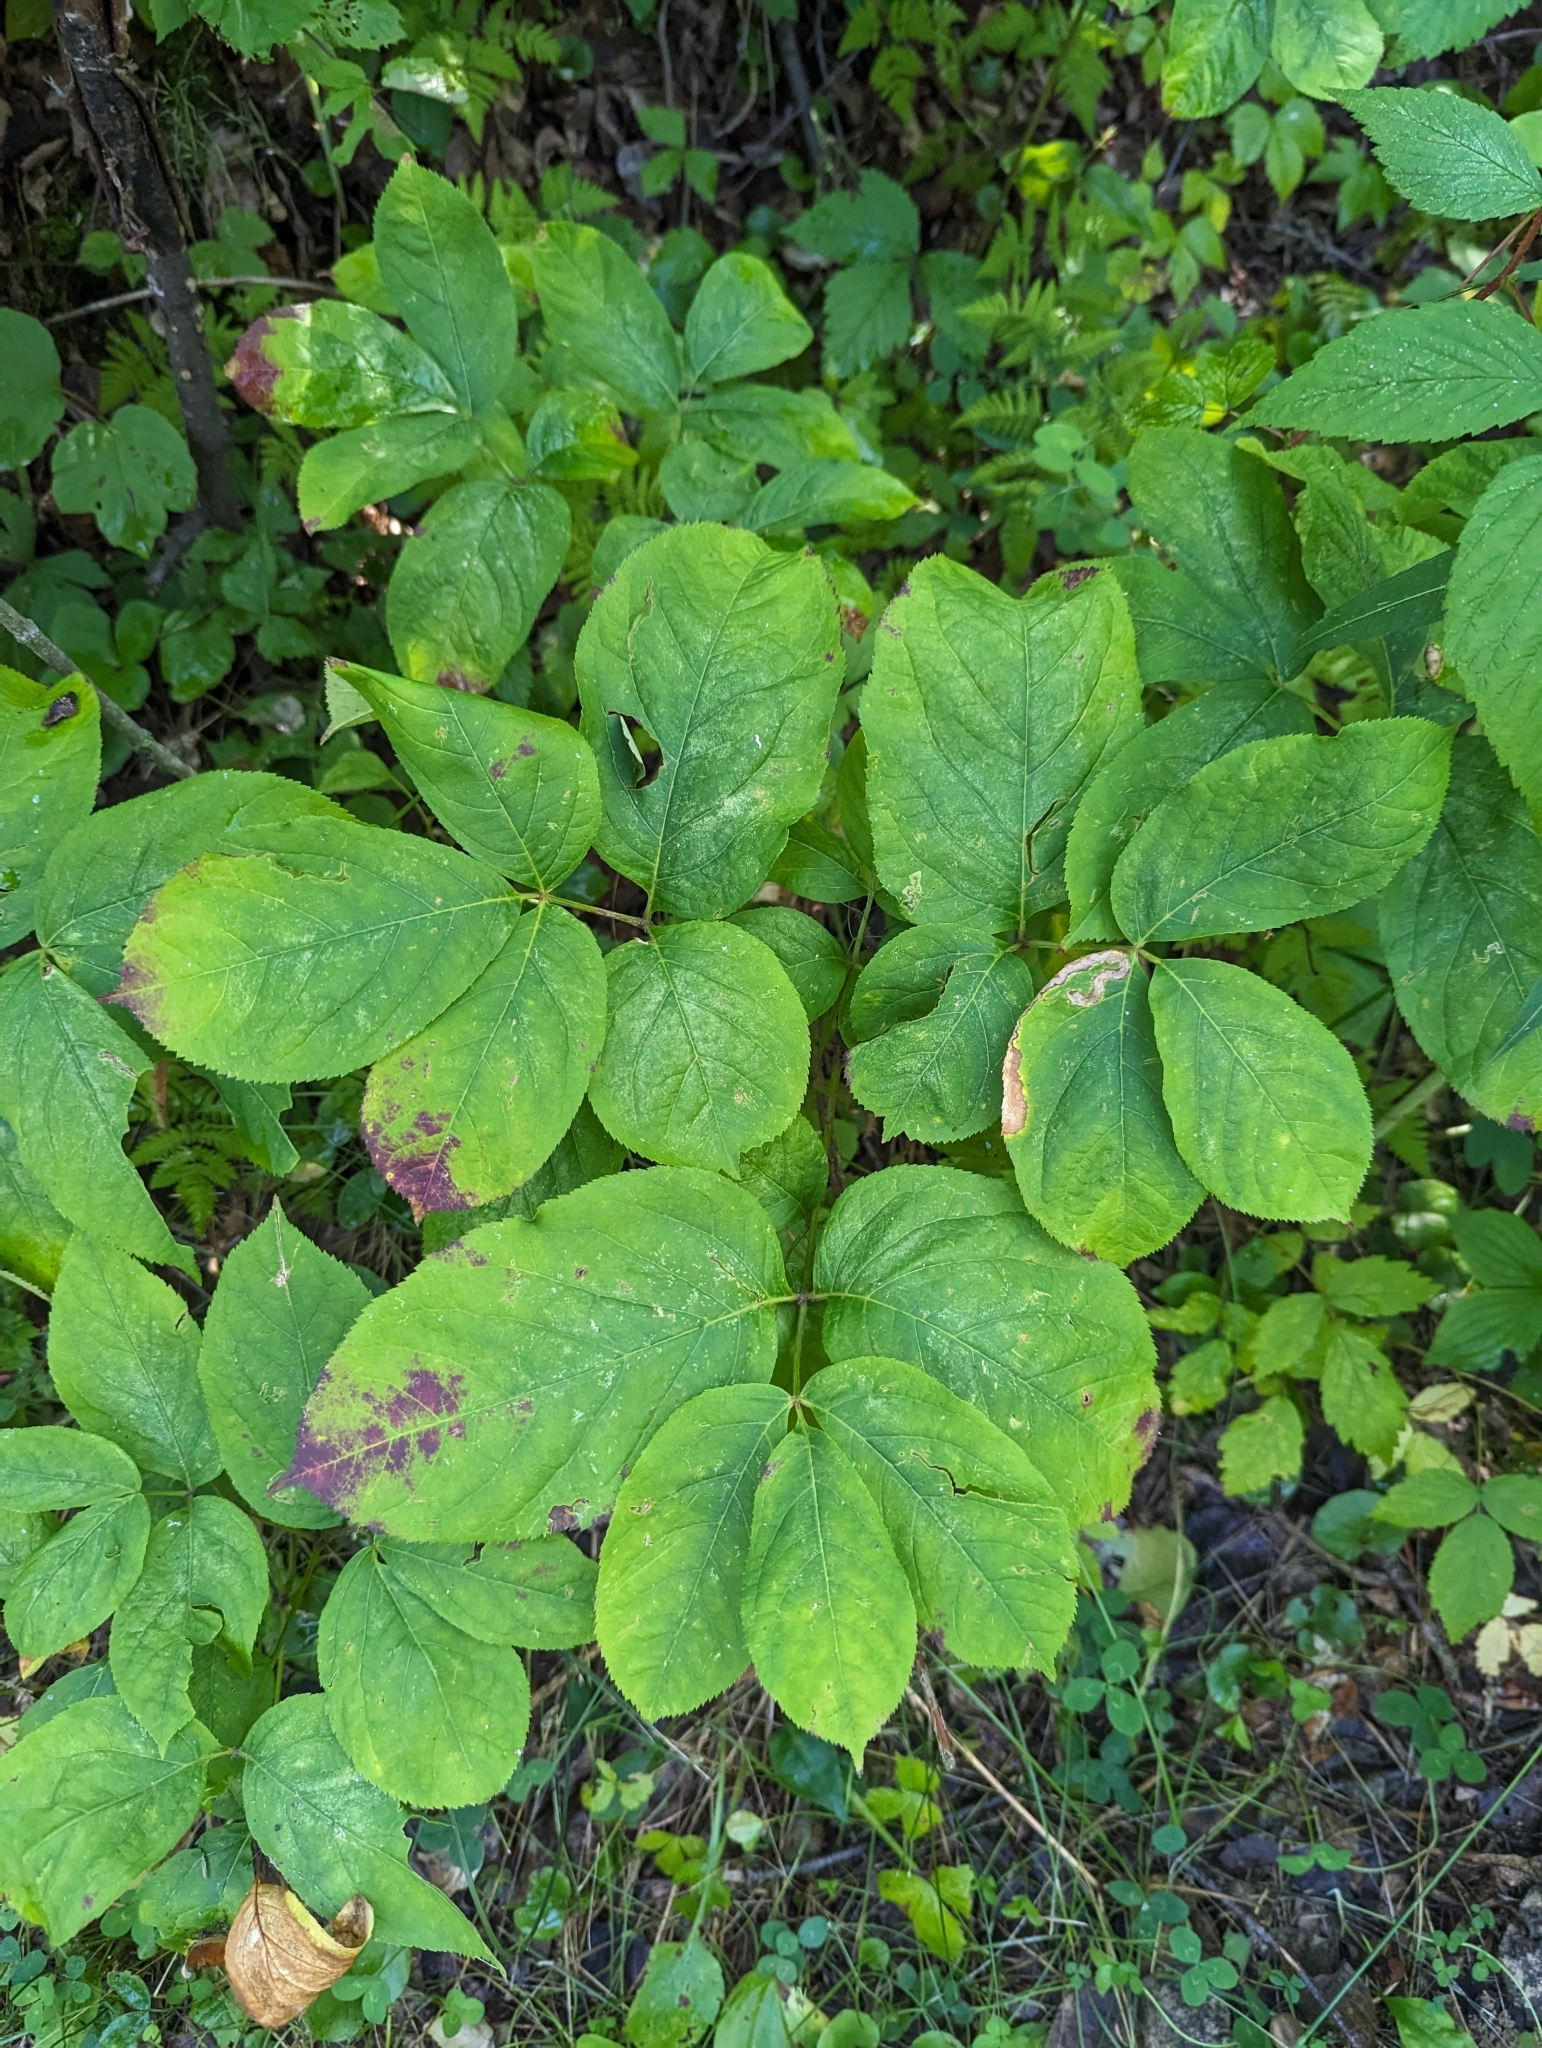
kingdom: Plantae
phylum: Tracheophyta
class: Magnoliopsida
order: Apiales
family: Araliaceae
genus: Aralia
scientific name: Aralia nudicaulis
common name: Wild sarsaparilla
